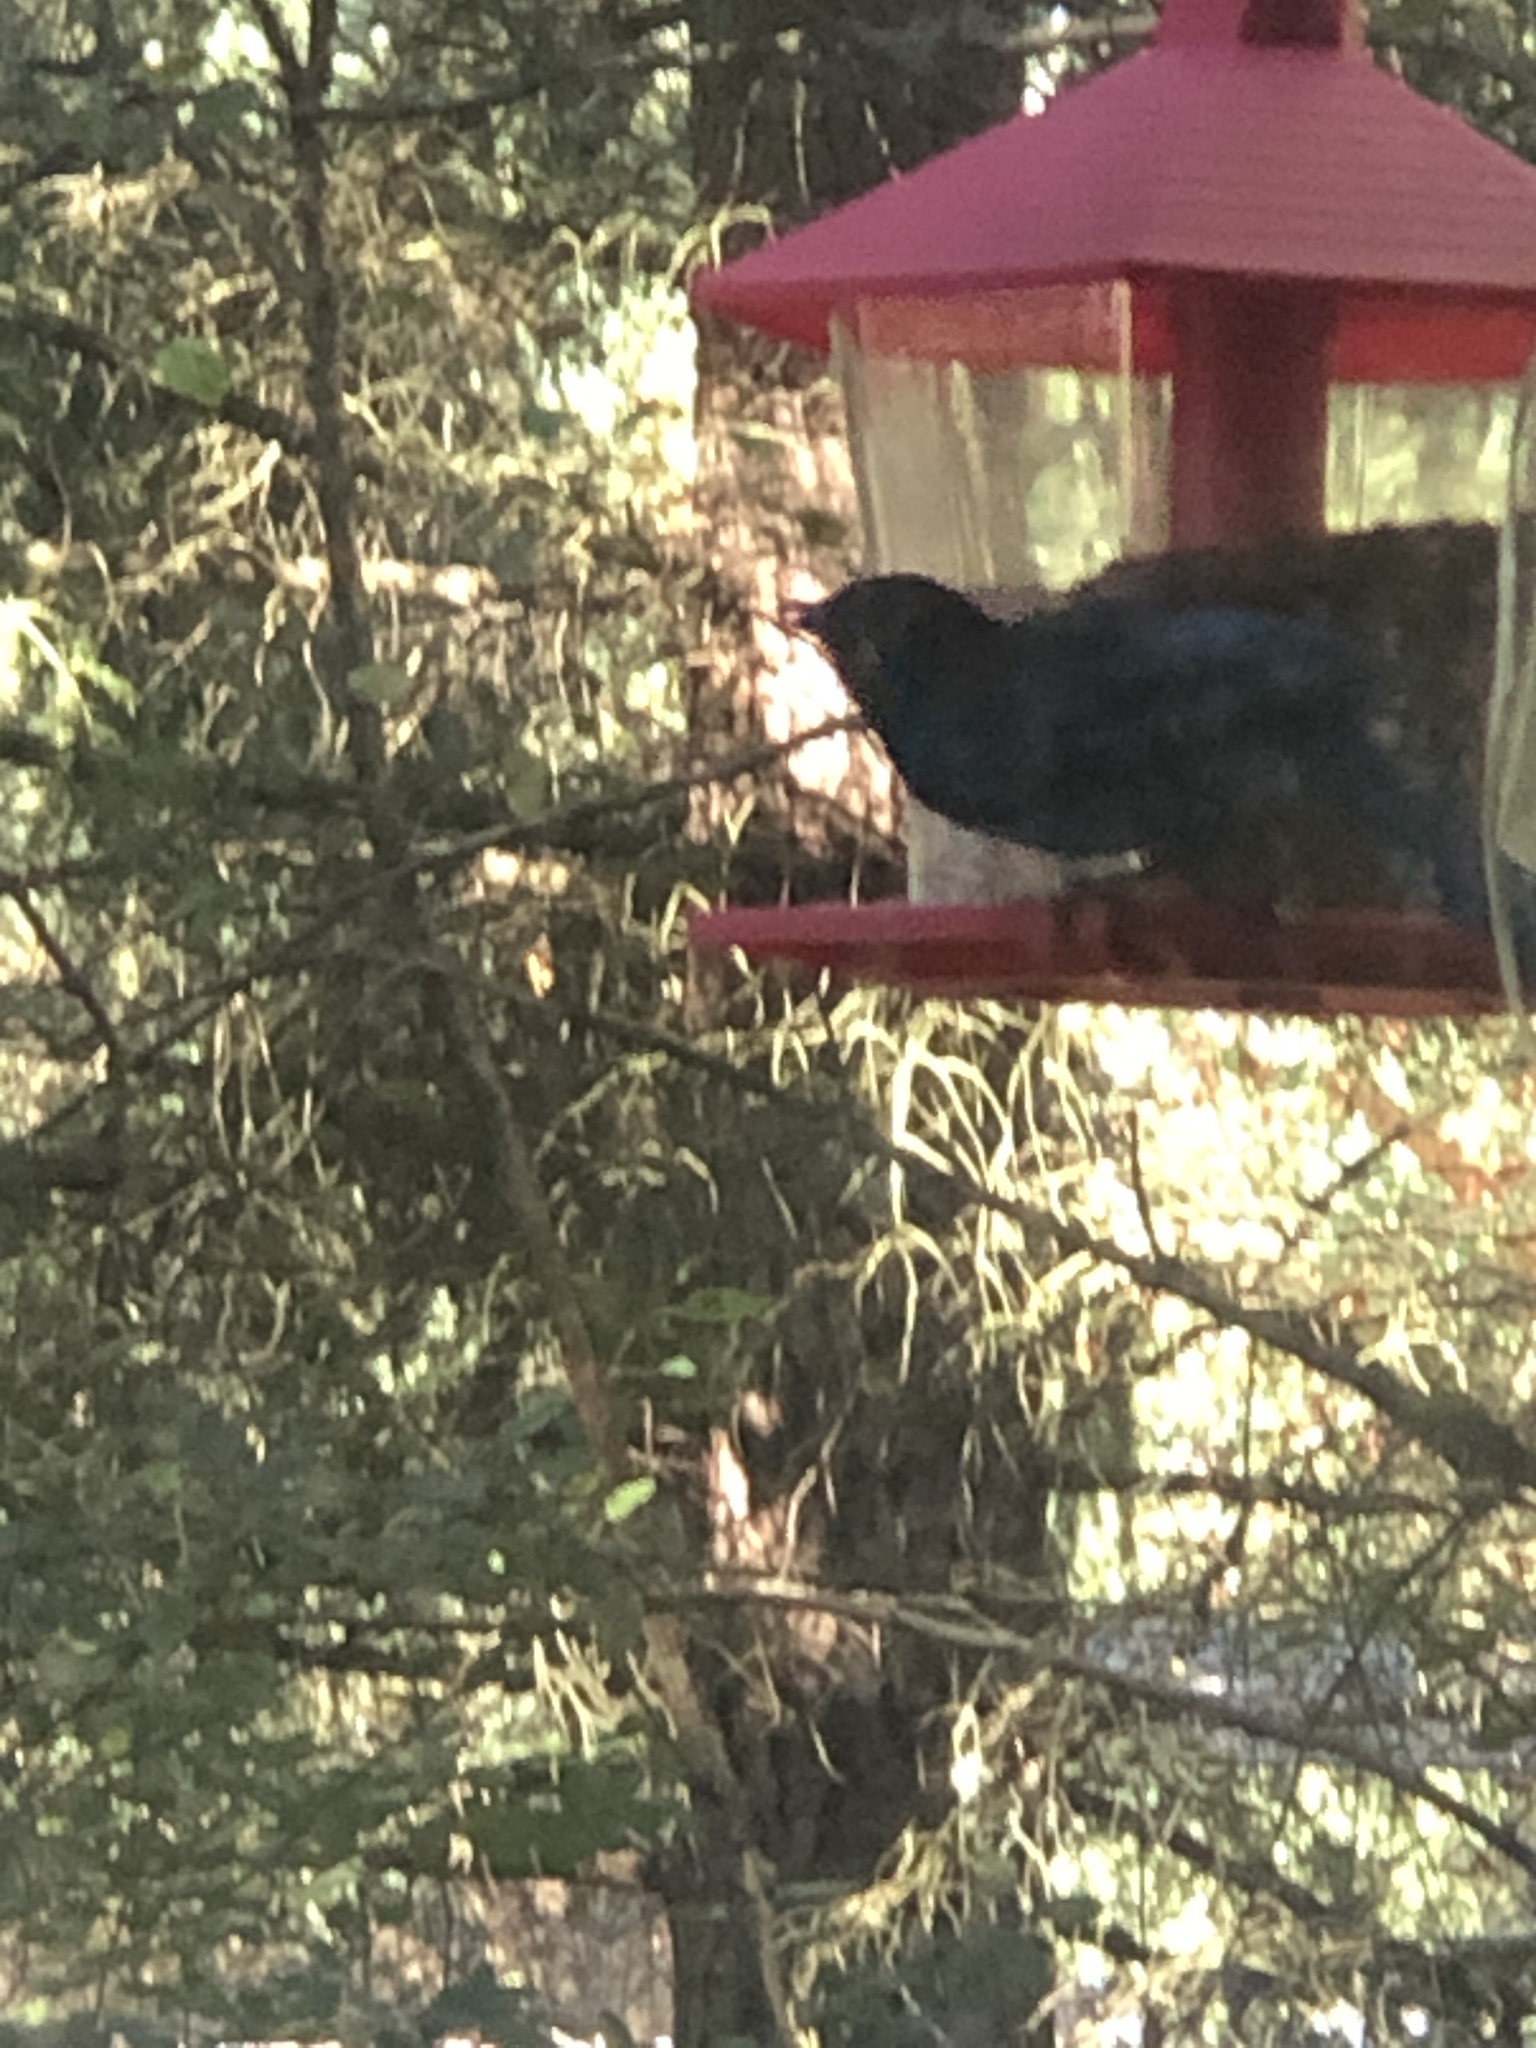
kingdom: Animalia
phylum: Chordata
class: Aves
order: Passeriformes
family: Corvidae
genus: Cyanocitta
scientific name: Cyanocitta stelleri
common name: Steller's jay
